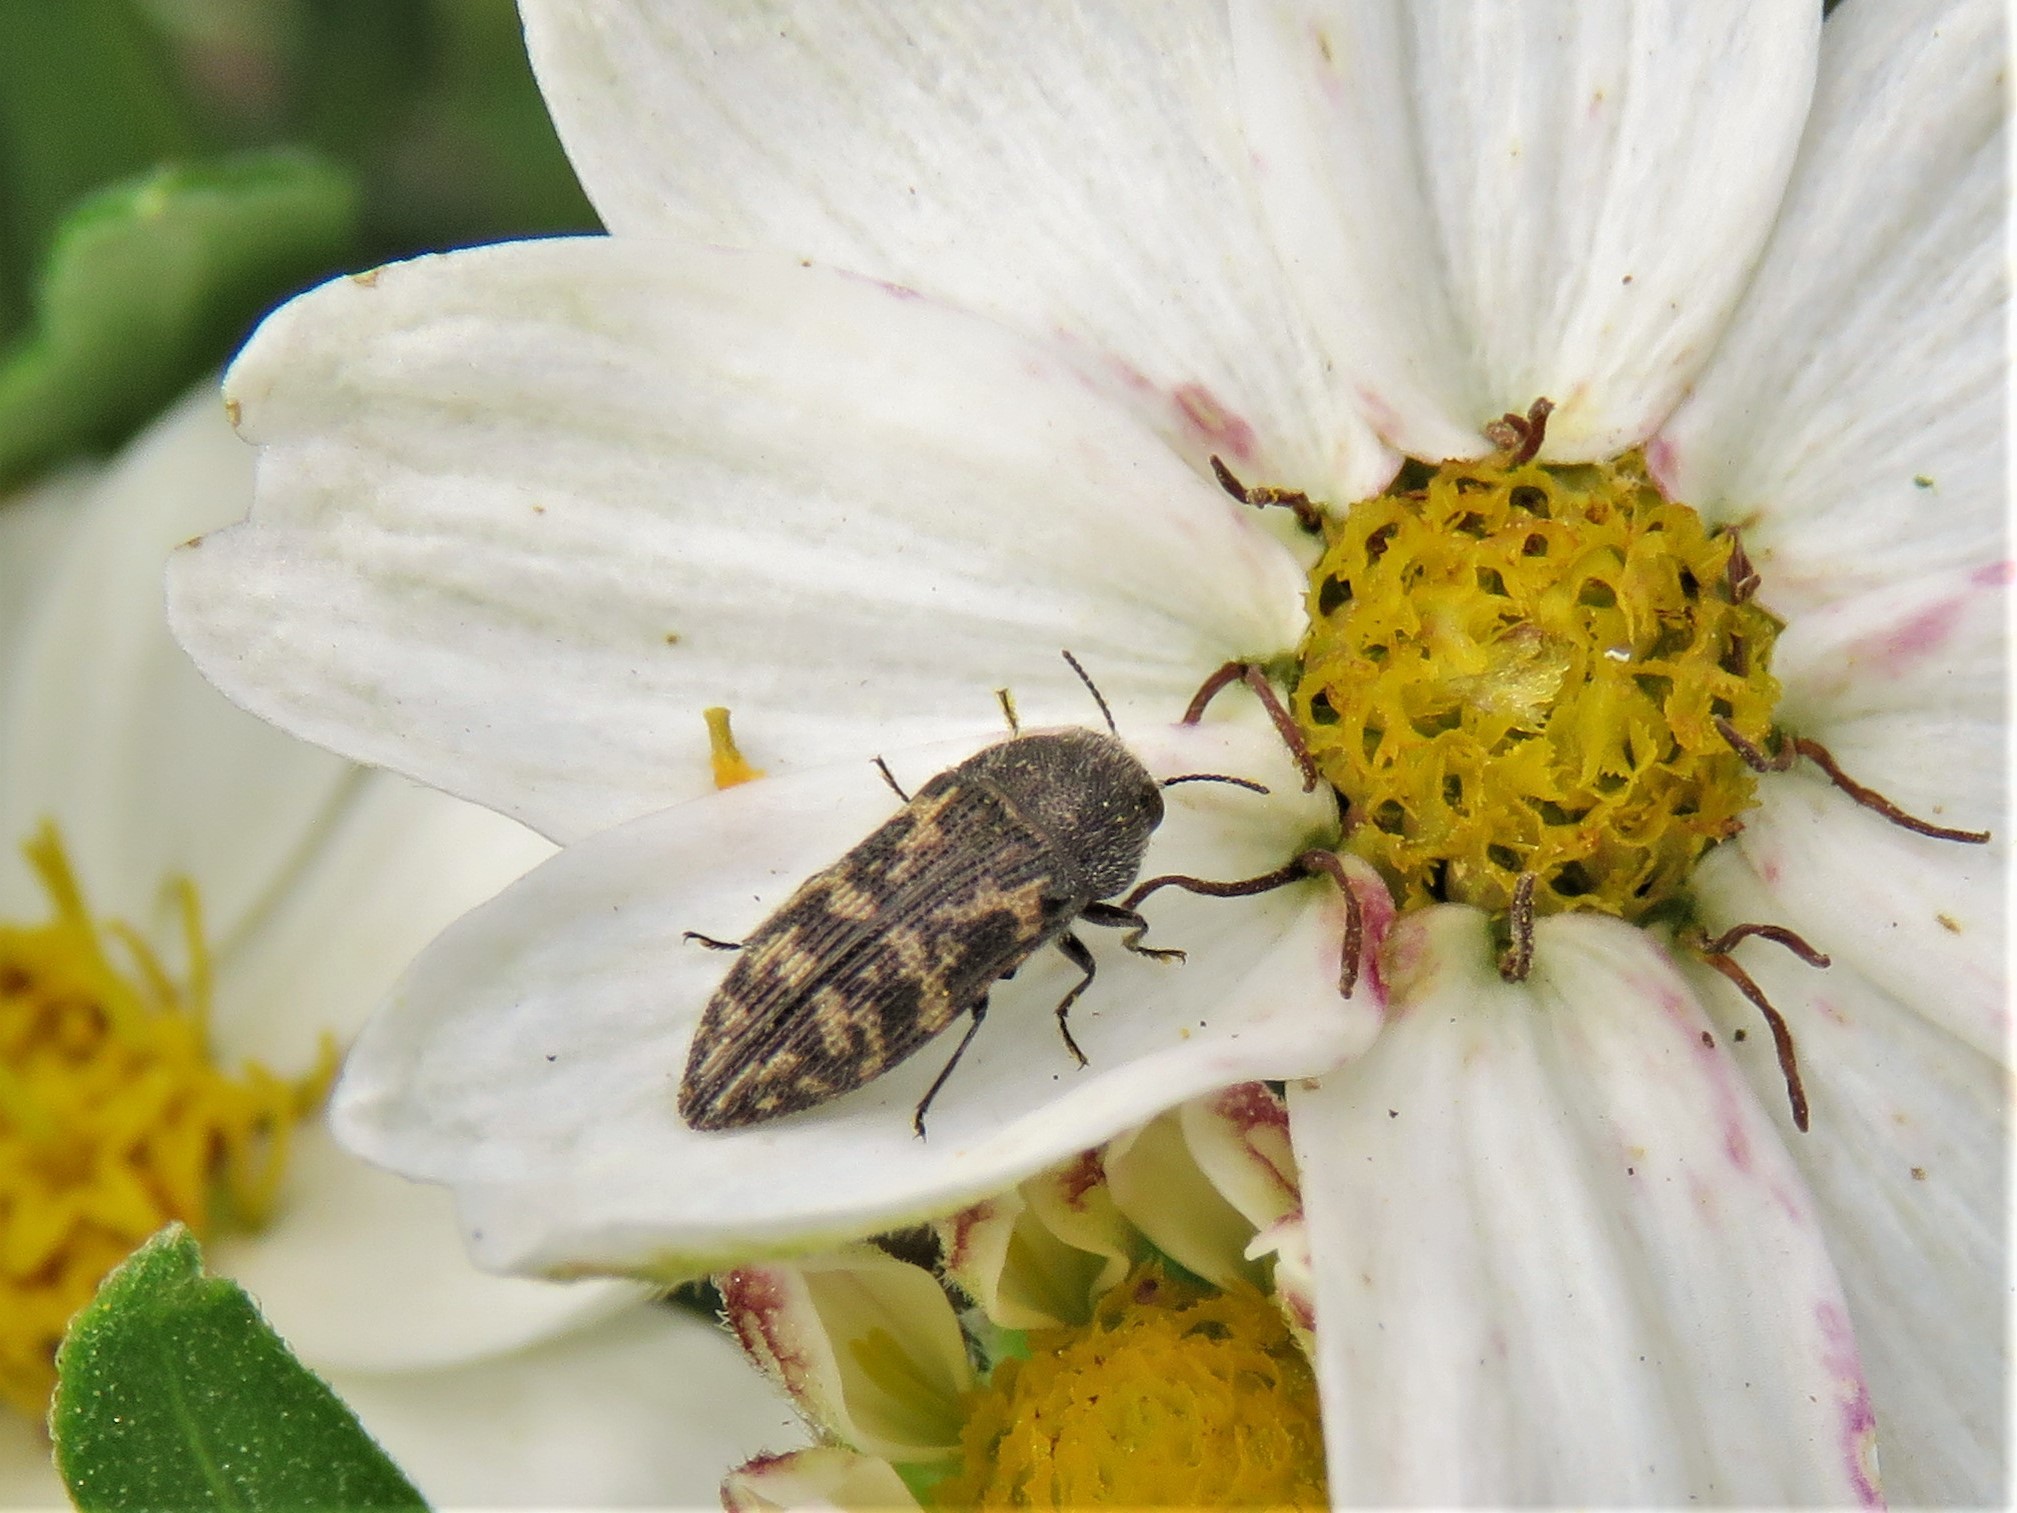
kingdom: Animalia
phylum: Arthropoda
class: Insecta
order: Coleoptera
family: Buprestidae
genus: Acmaeodera
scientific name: Acmaeodera neglecta
